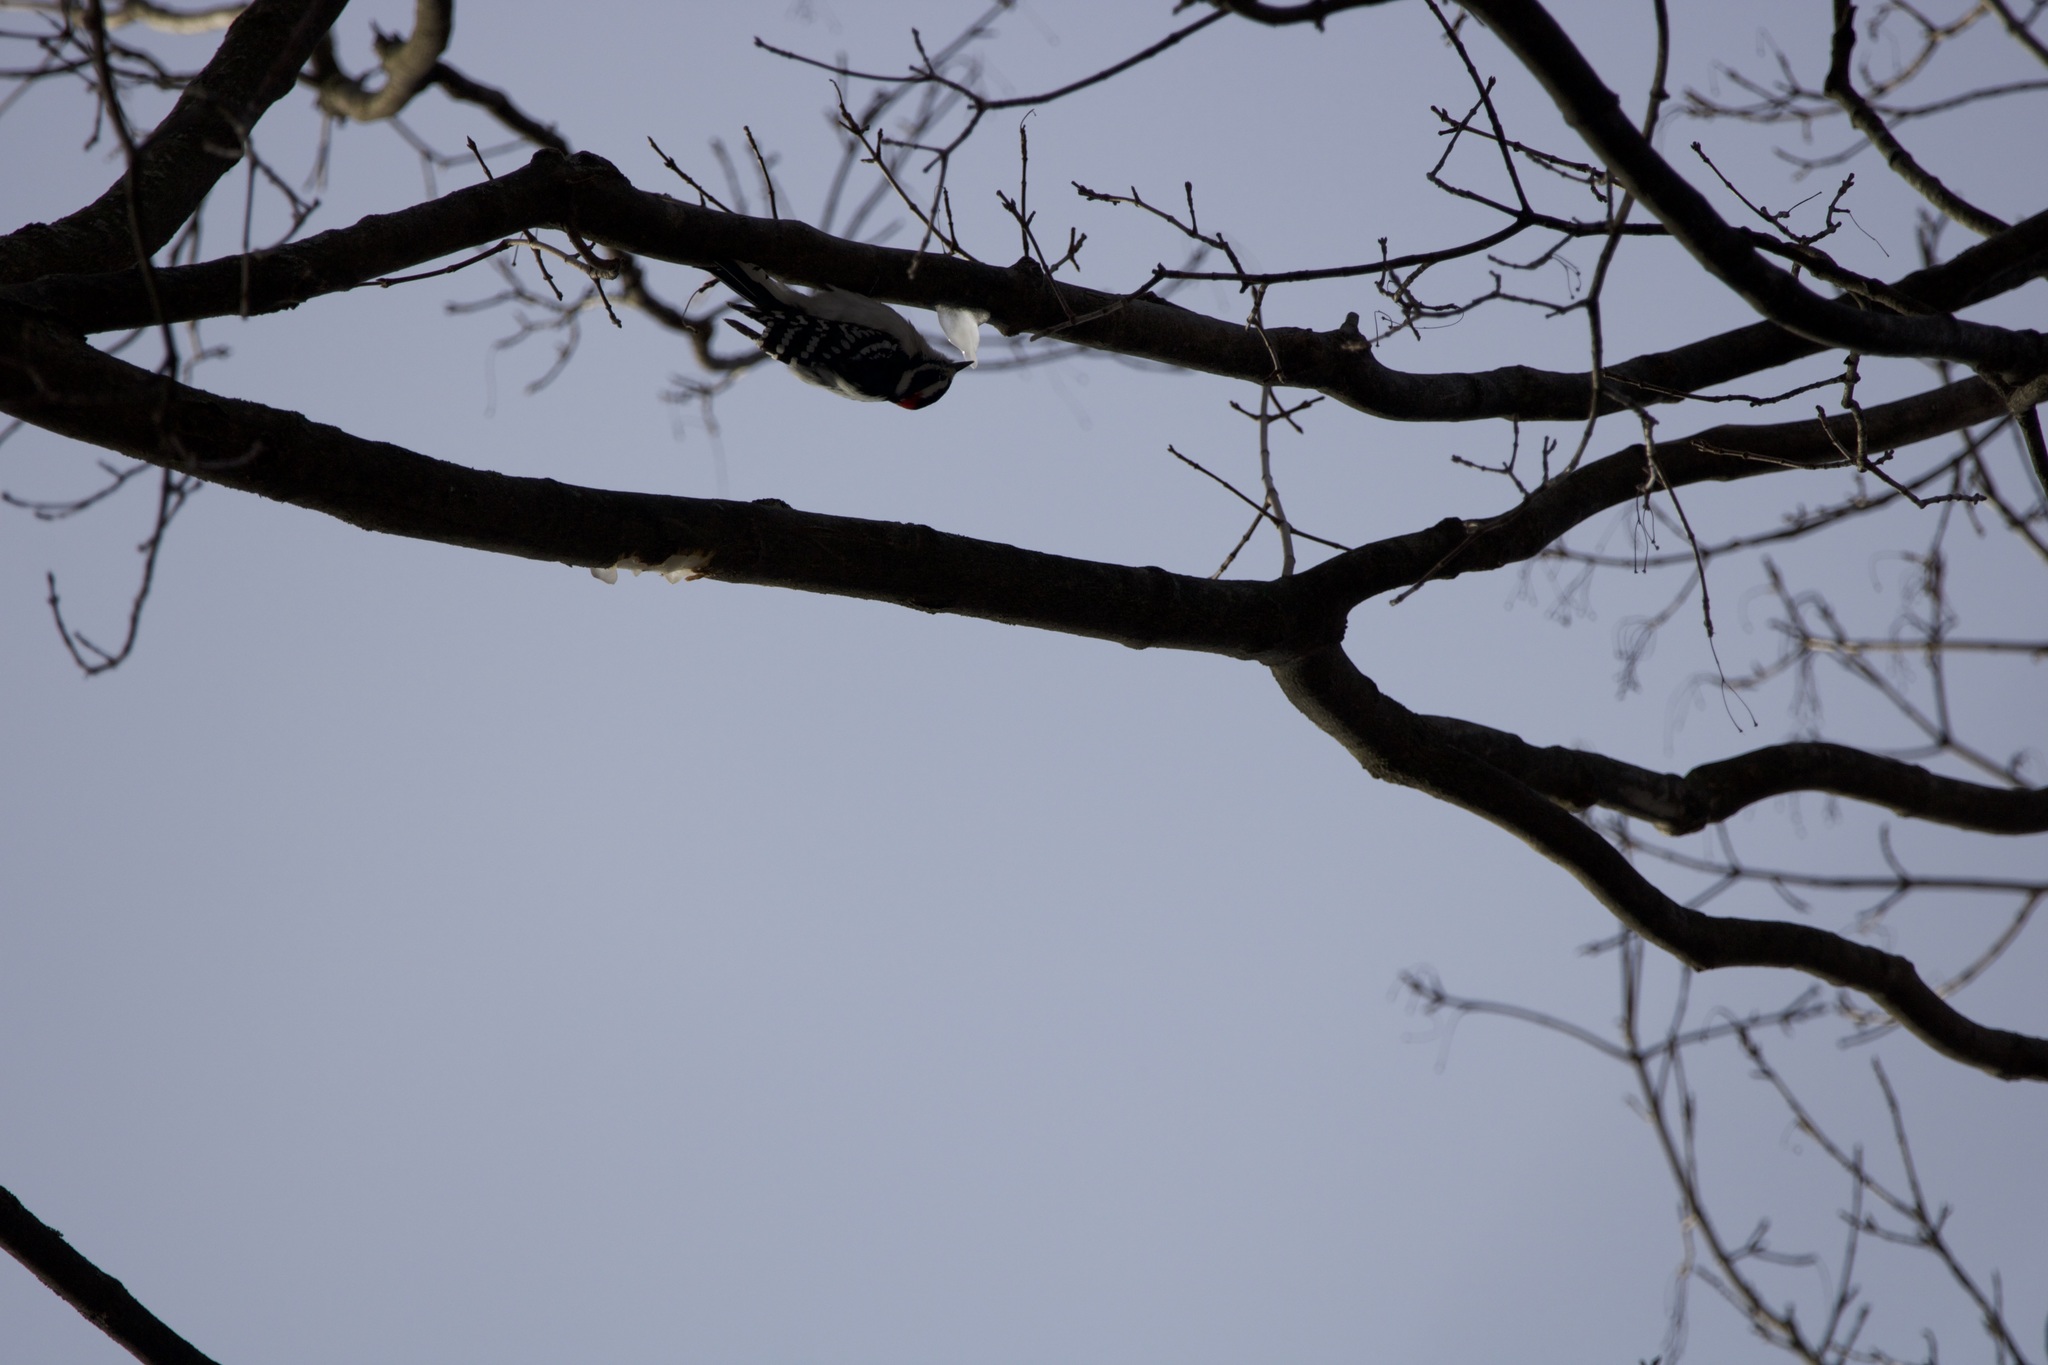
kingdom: Animalia
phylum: Chordata
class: Aves
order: Piciformes
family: Picidae
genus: Dryobates
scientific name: Dryobates pubescens
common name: Downy woodpecker
